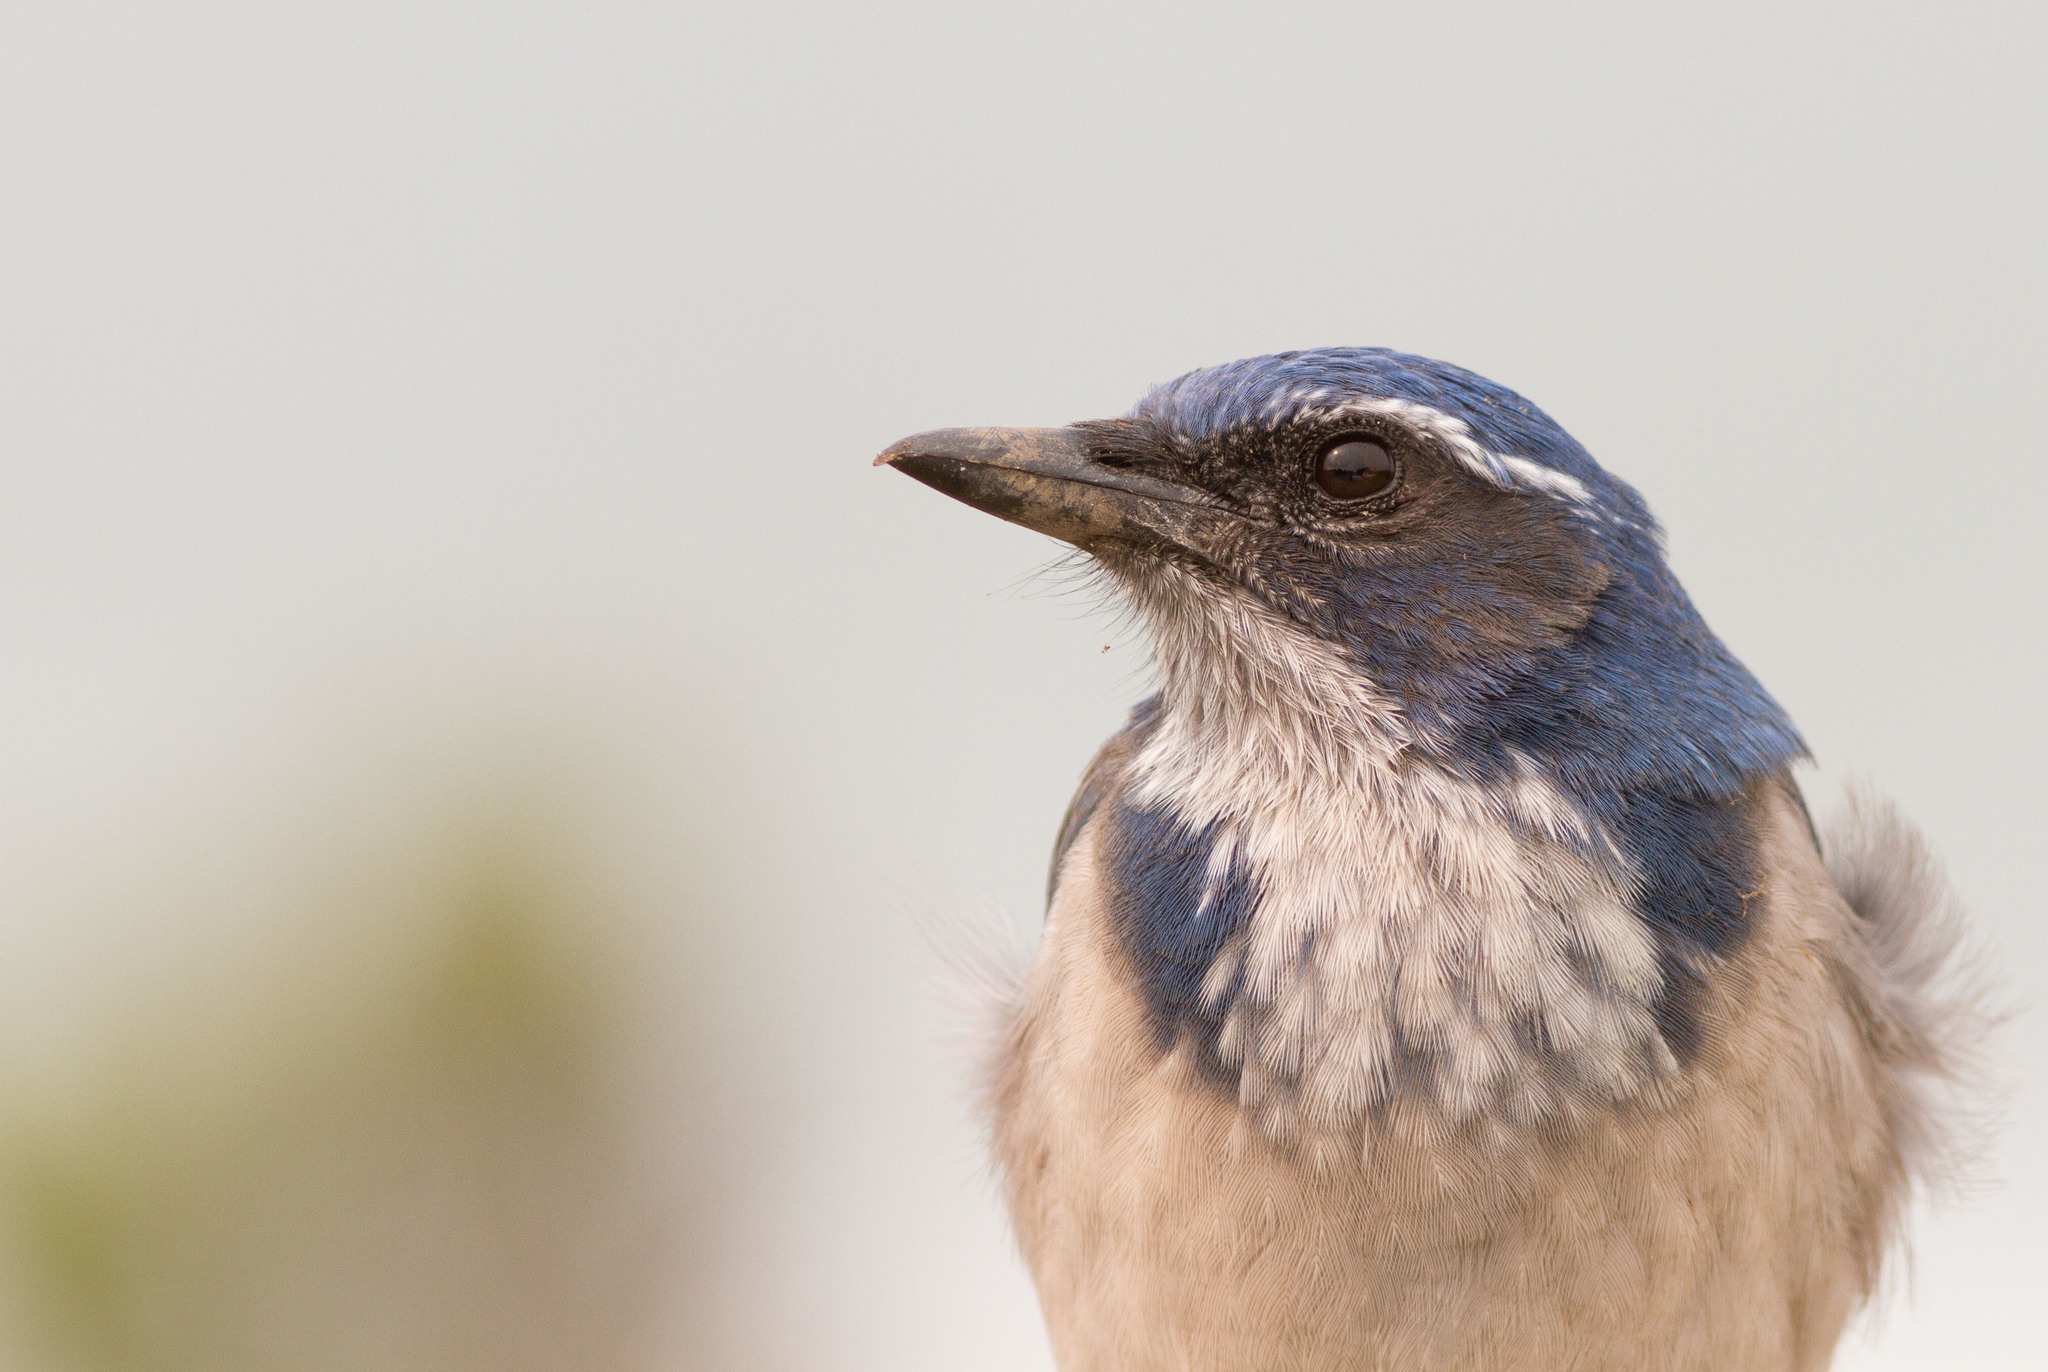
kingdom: Animalia
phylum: Chordata
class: Aves
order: Passeriformes
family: Corvidae
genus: Aphelocoma
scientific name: Aphelocoma californica
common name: California scrub-jay
